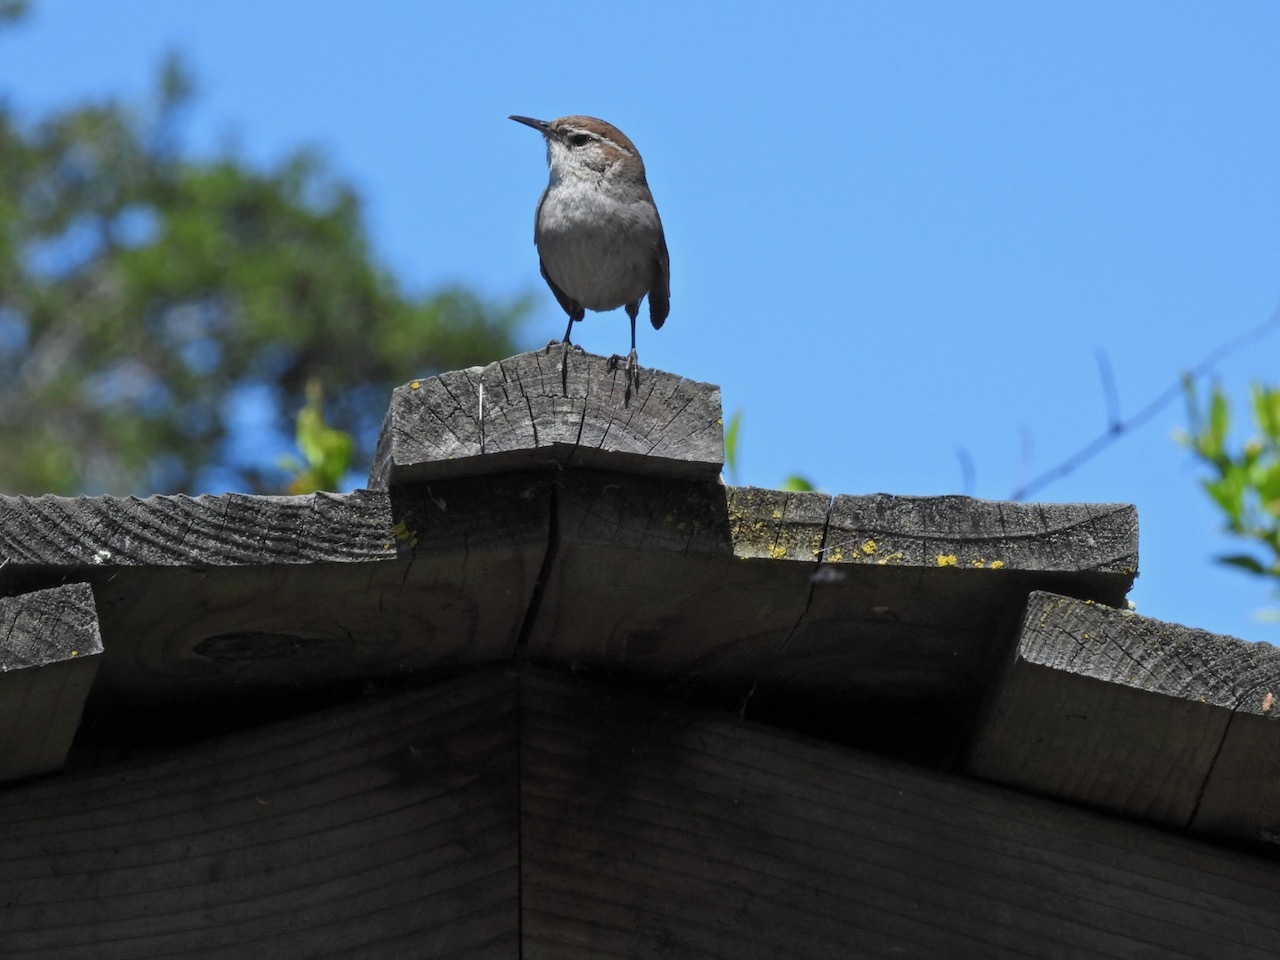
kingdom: Animalia
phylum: Chordata
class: Aves
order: Passeriformes
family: Troglodytidae
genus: Thryomanes
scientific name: Thryomanes bewickii
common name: Bewick's wren
